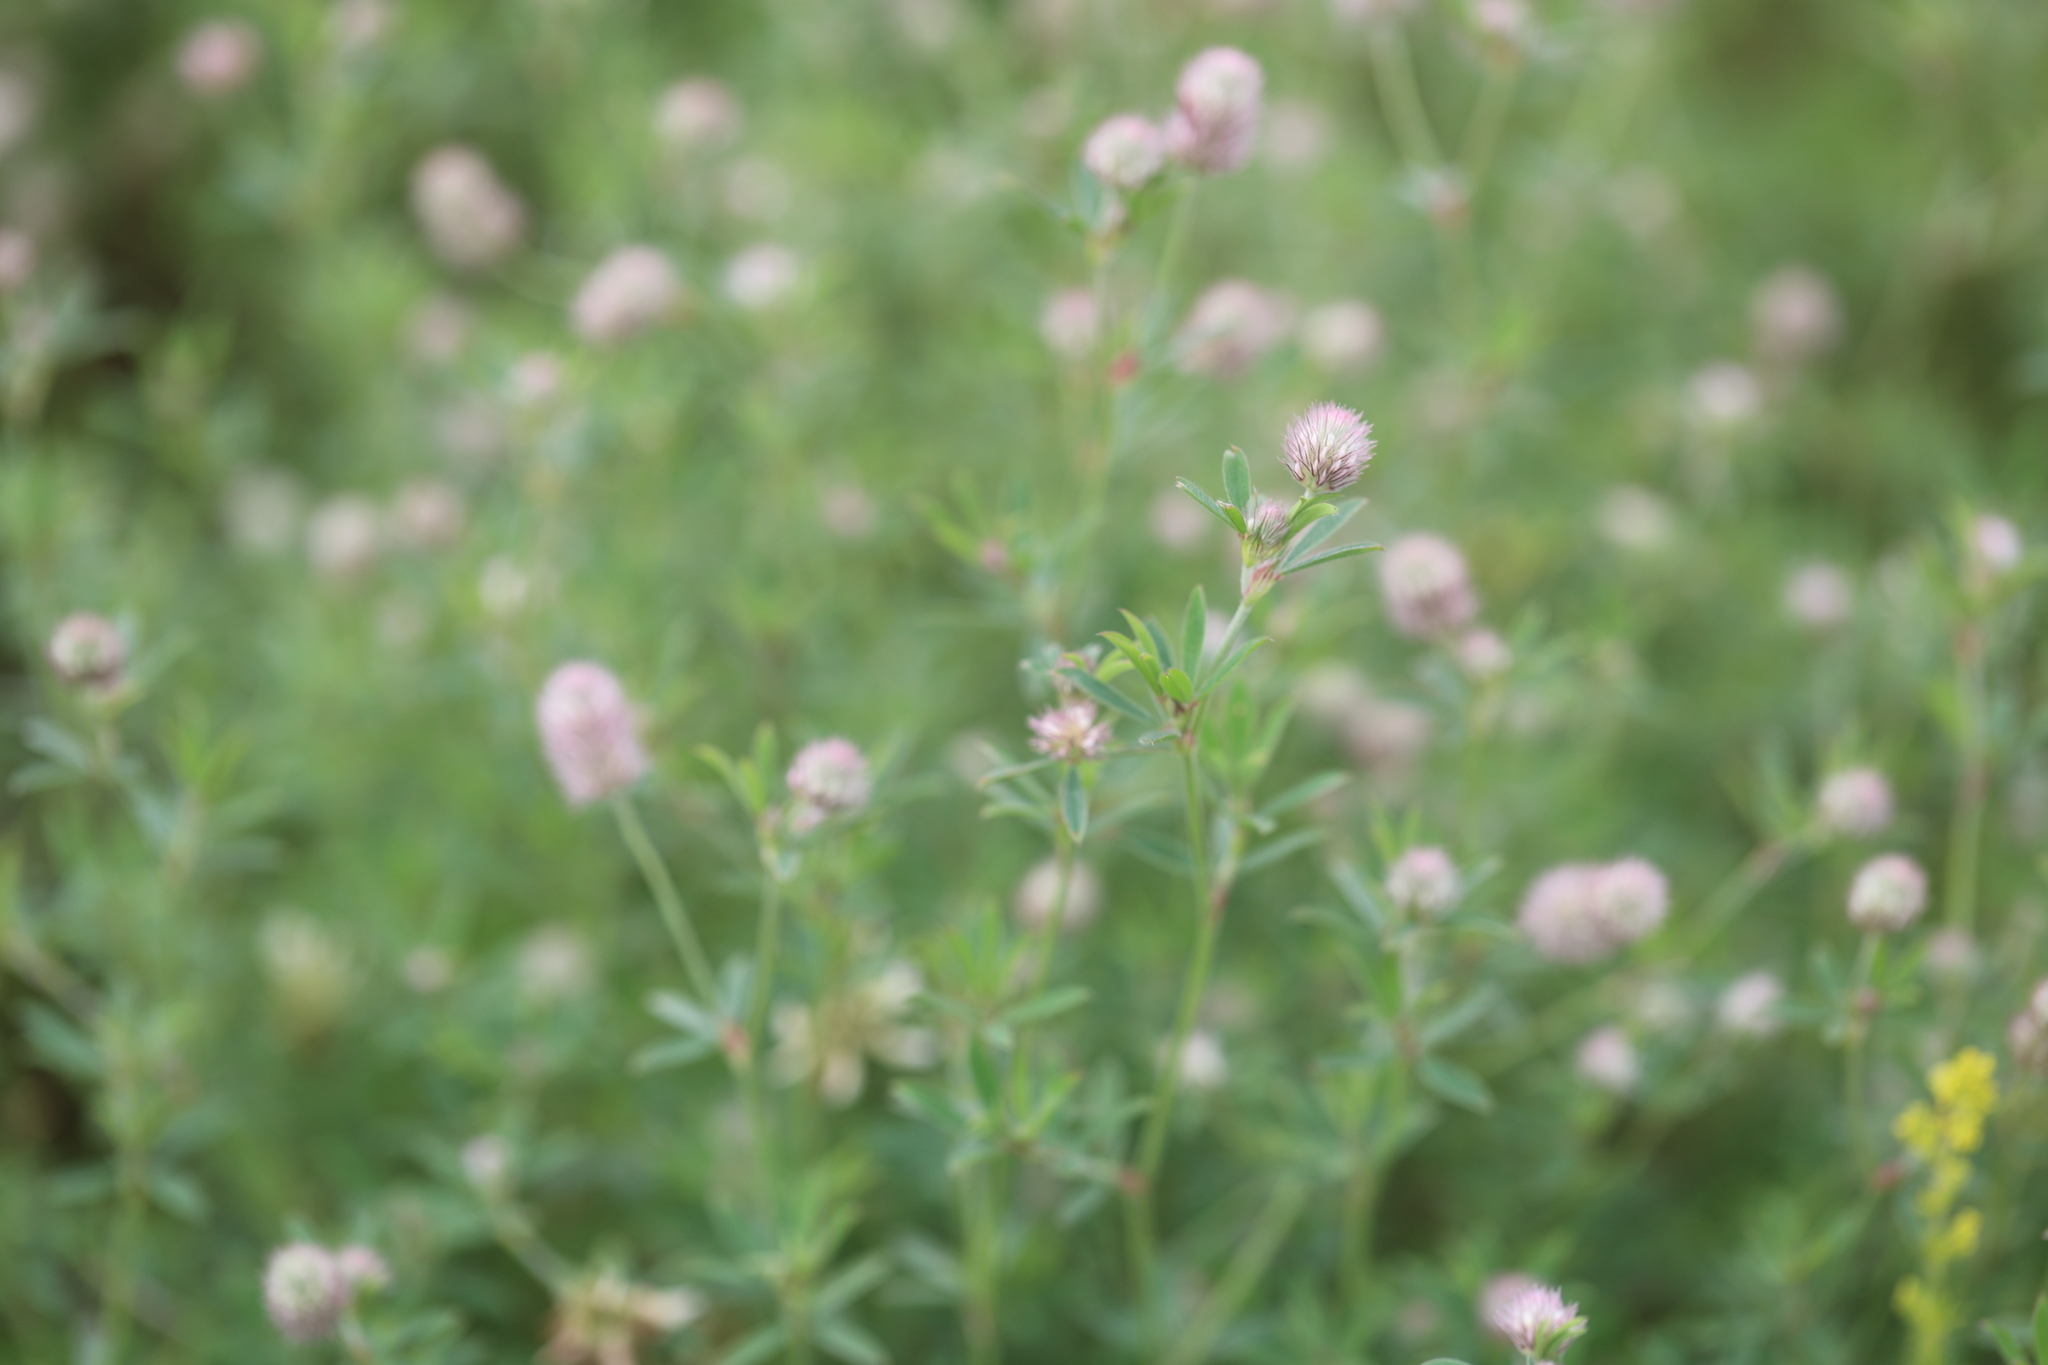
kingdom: Plantae
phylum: Tracheophyta
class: Magnoliopsida
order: Fabales
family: Fabaceae
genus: Trifolium
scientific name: Trifolium arvense
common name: Hare's-foot clover
